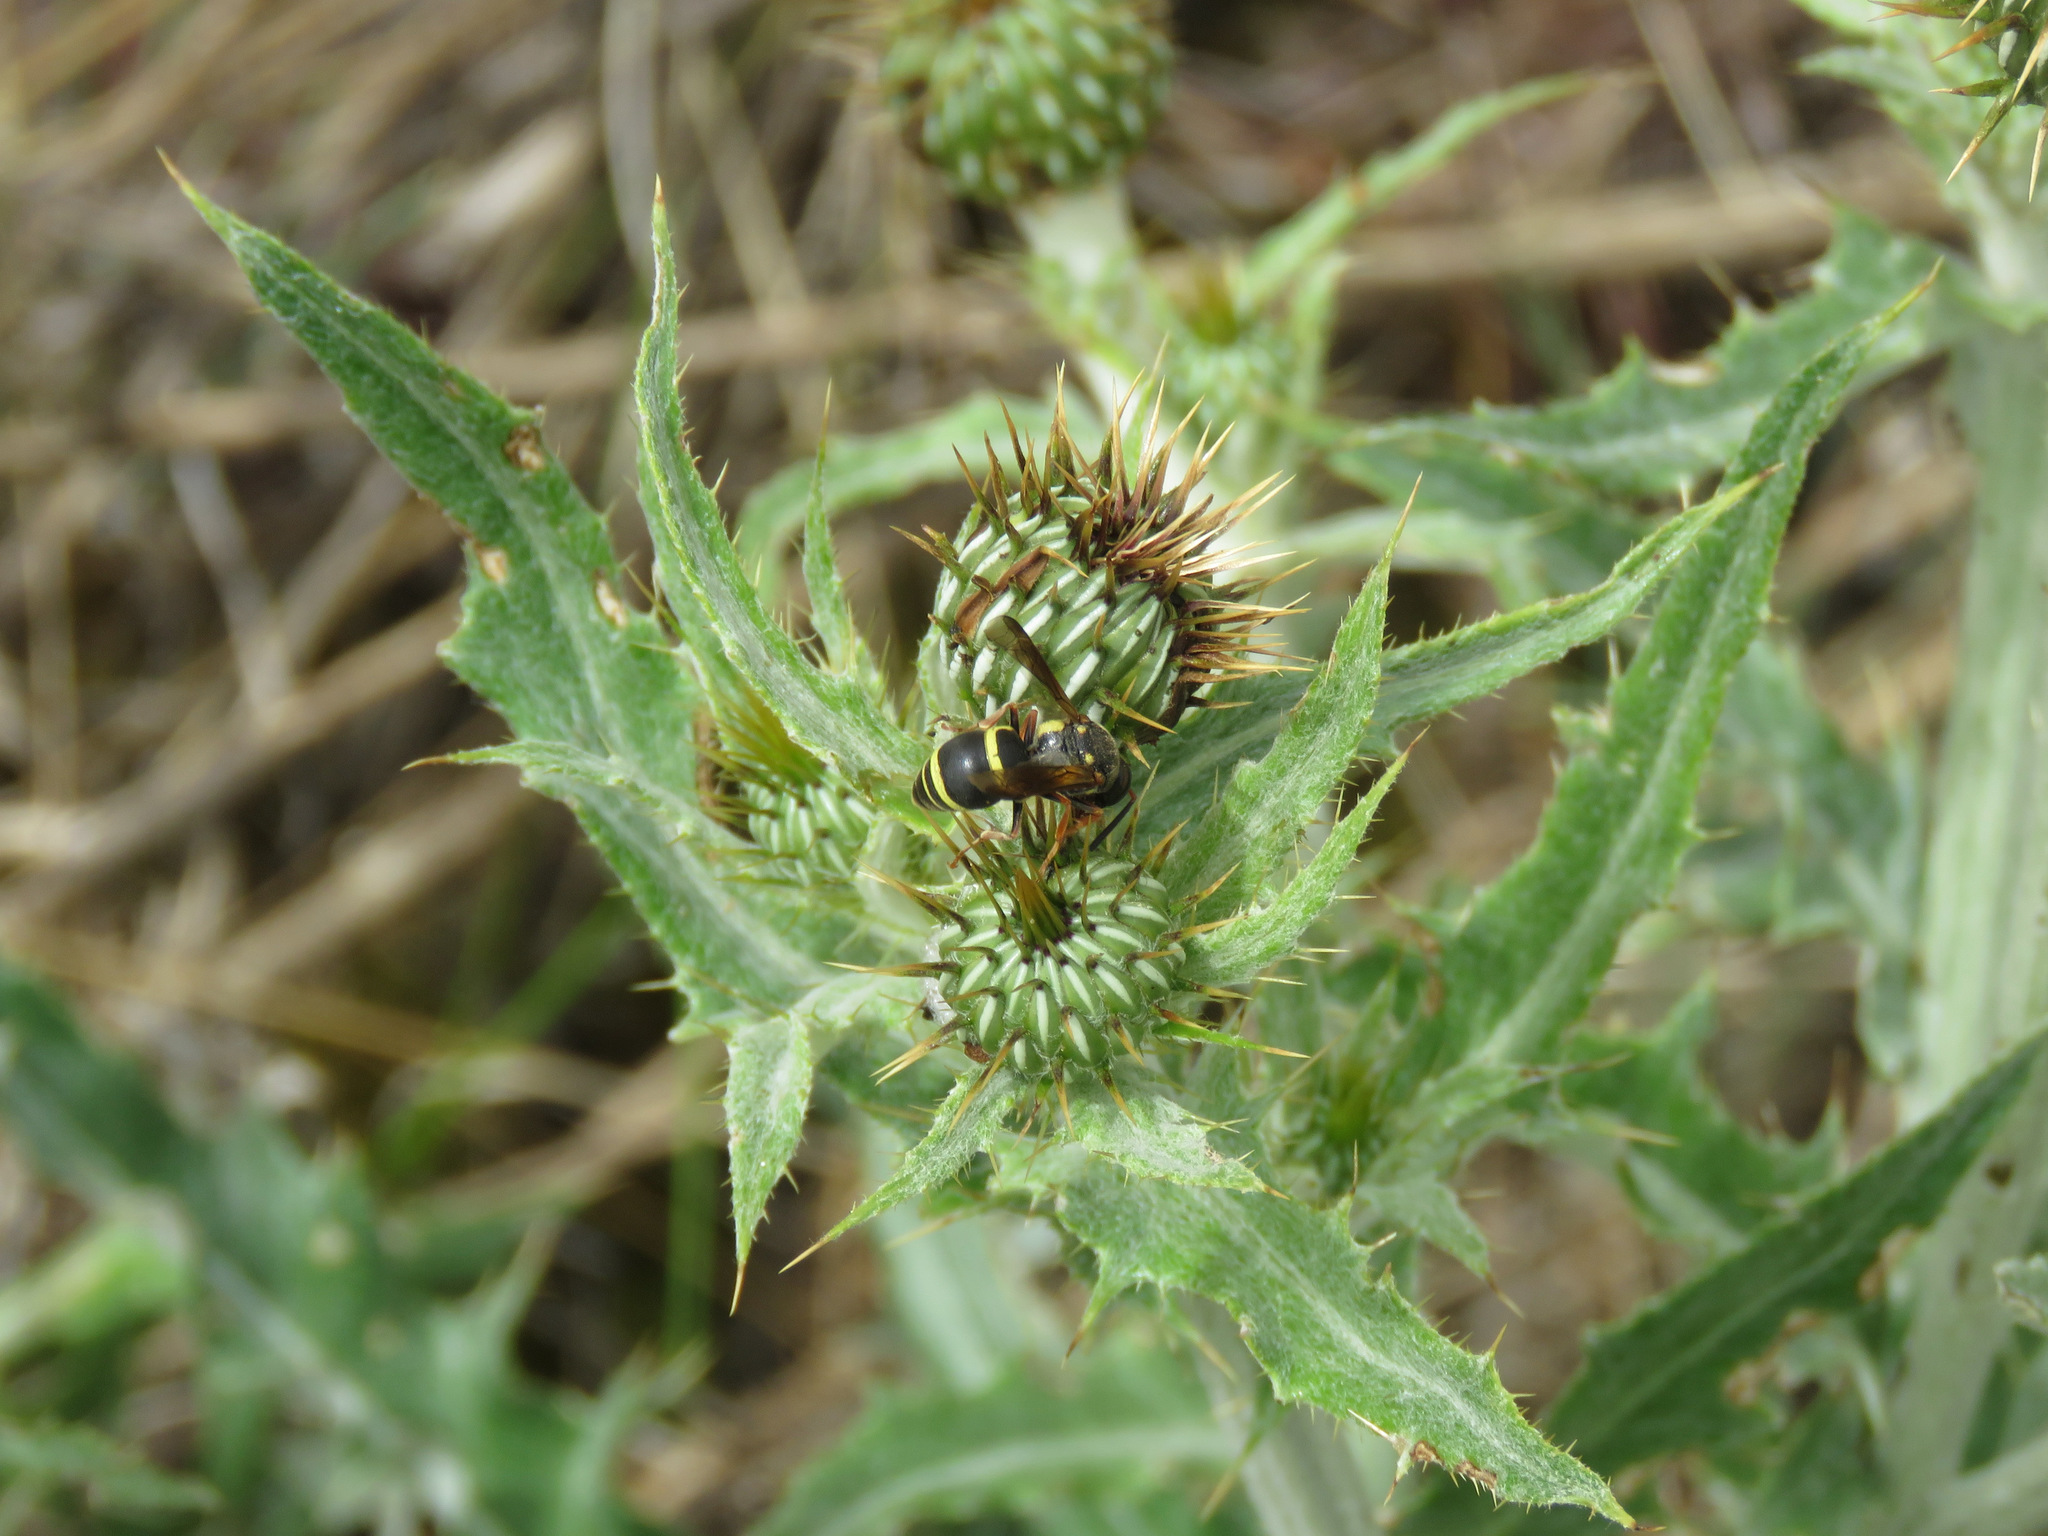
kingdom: Animalia
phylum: Arthropoda
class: Insecta
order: Hymenoptera
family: Eumenidae
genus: Polistes
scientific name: Polistes dominula
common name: Paper wasp
